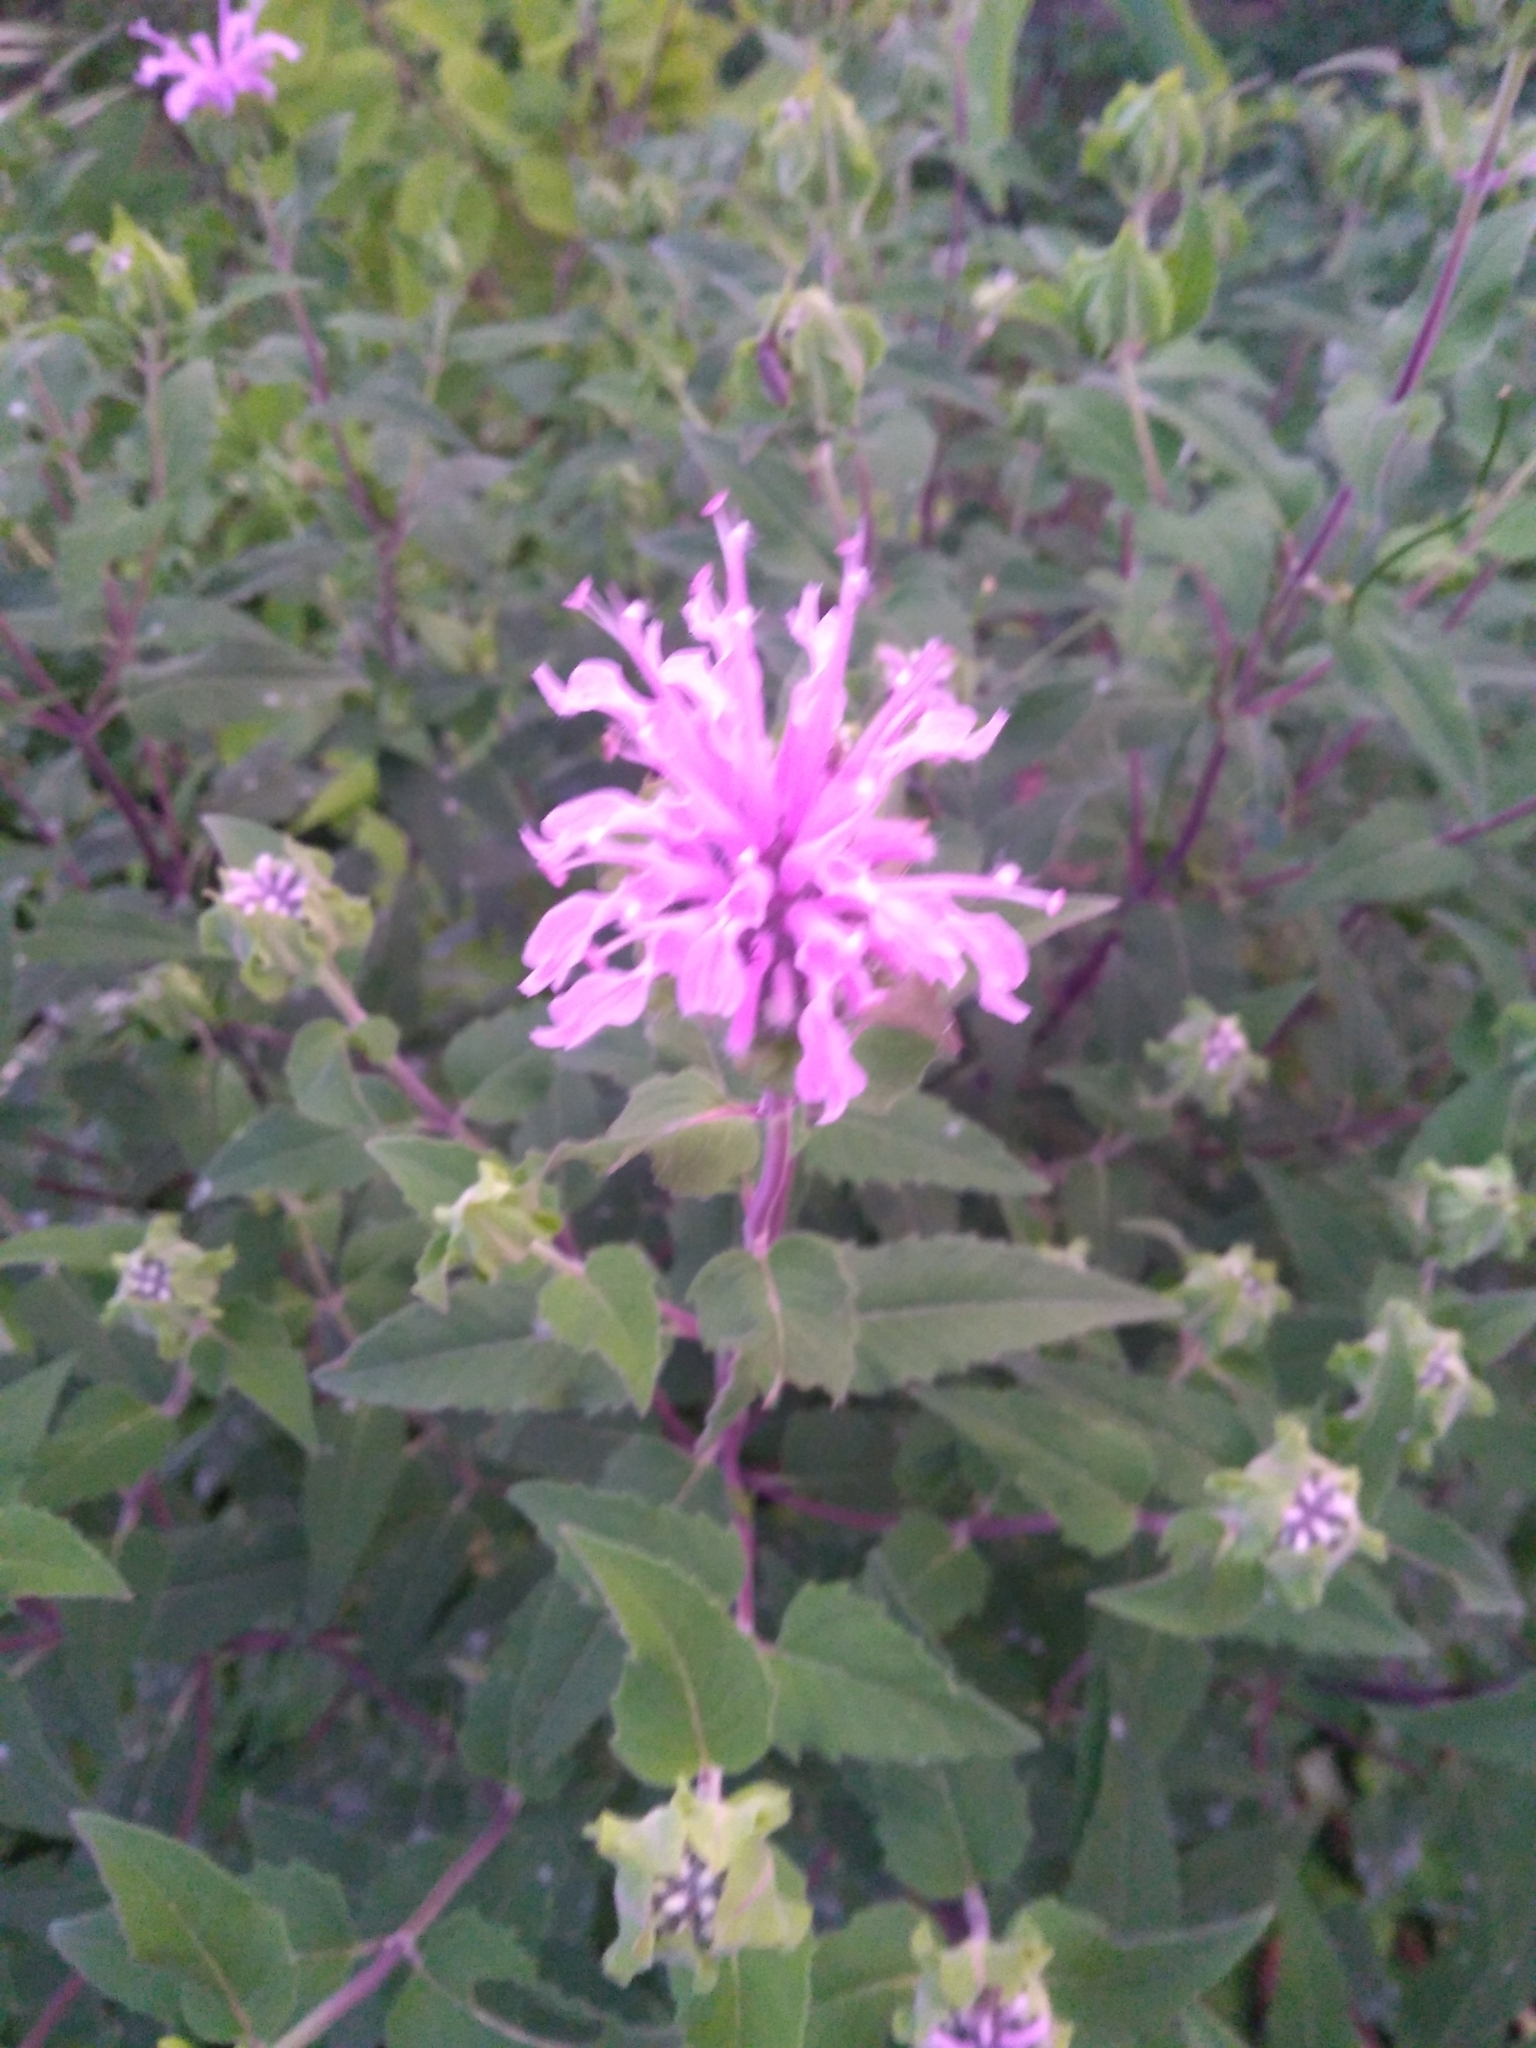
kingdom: Plantae
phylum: Tracheophyta
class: Magnoliopsida
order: Lamiales
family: Lamiaceae
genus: Monarda
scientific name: Monarda fistulosa
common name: Purple beebalm
